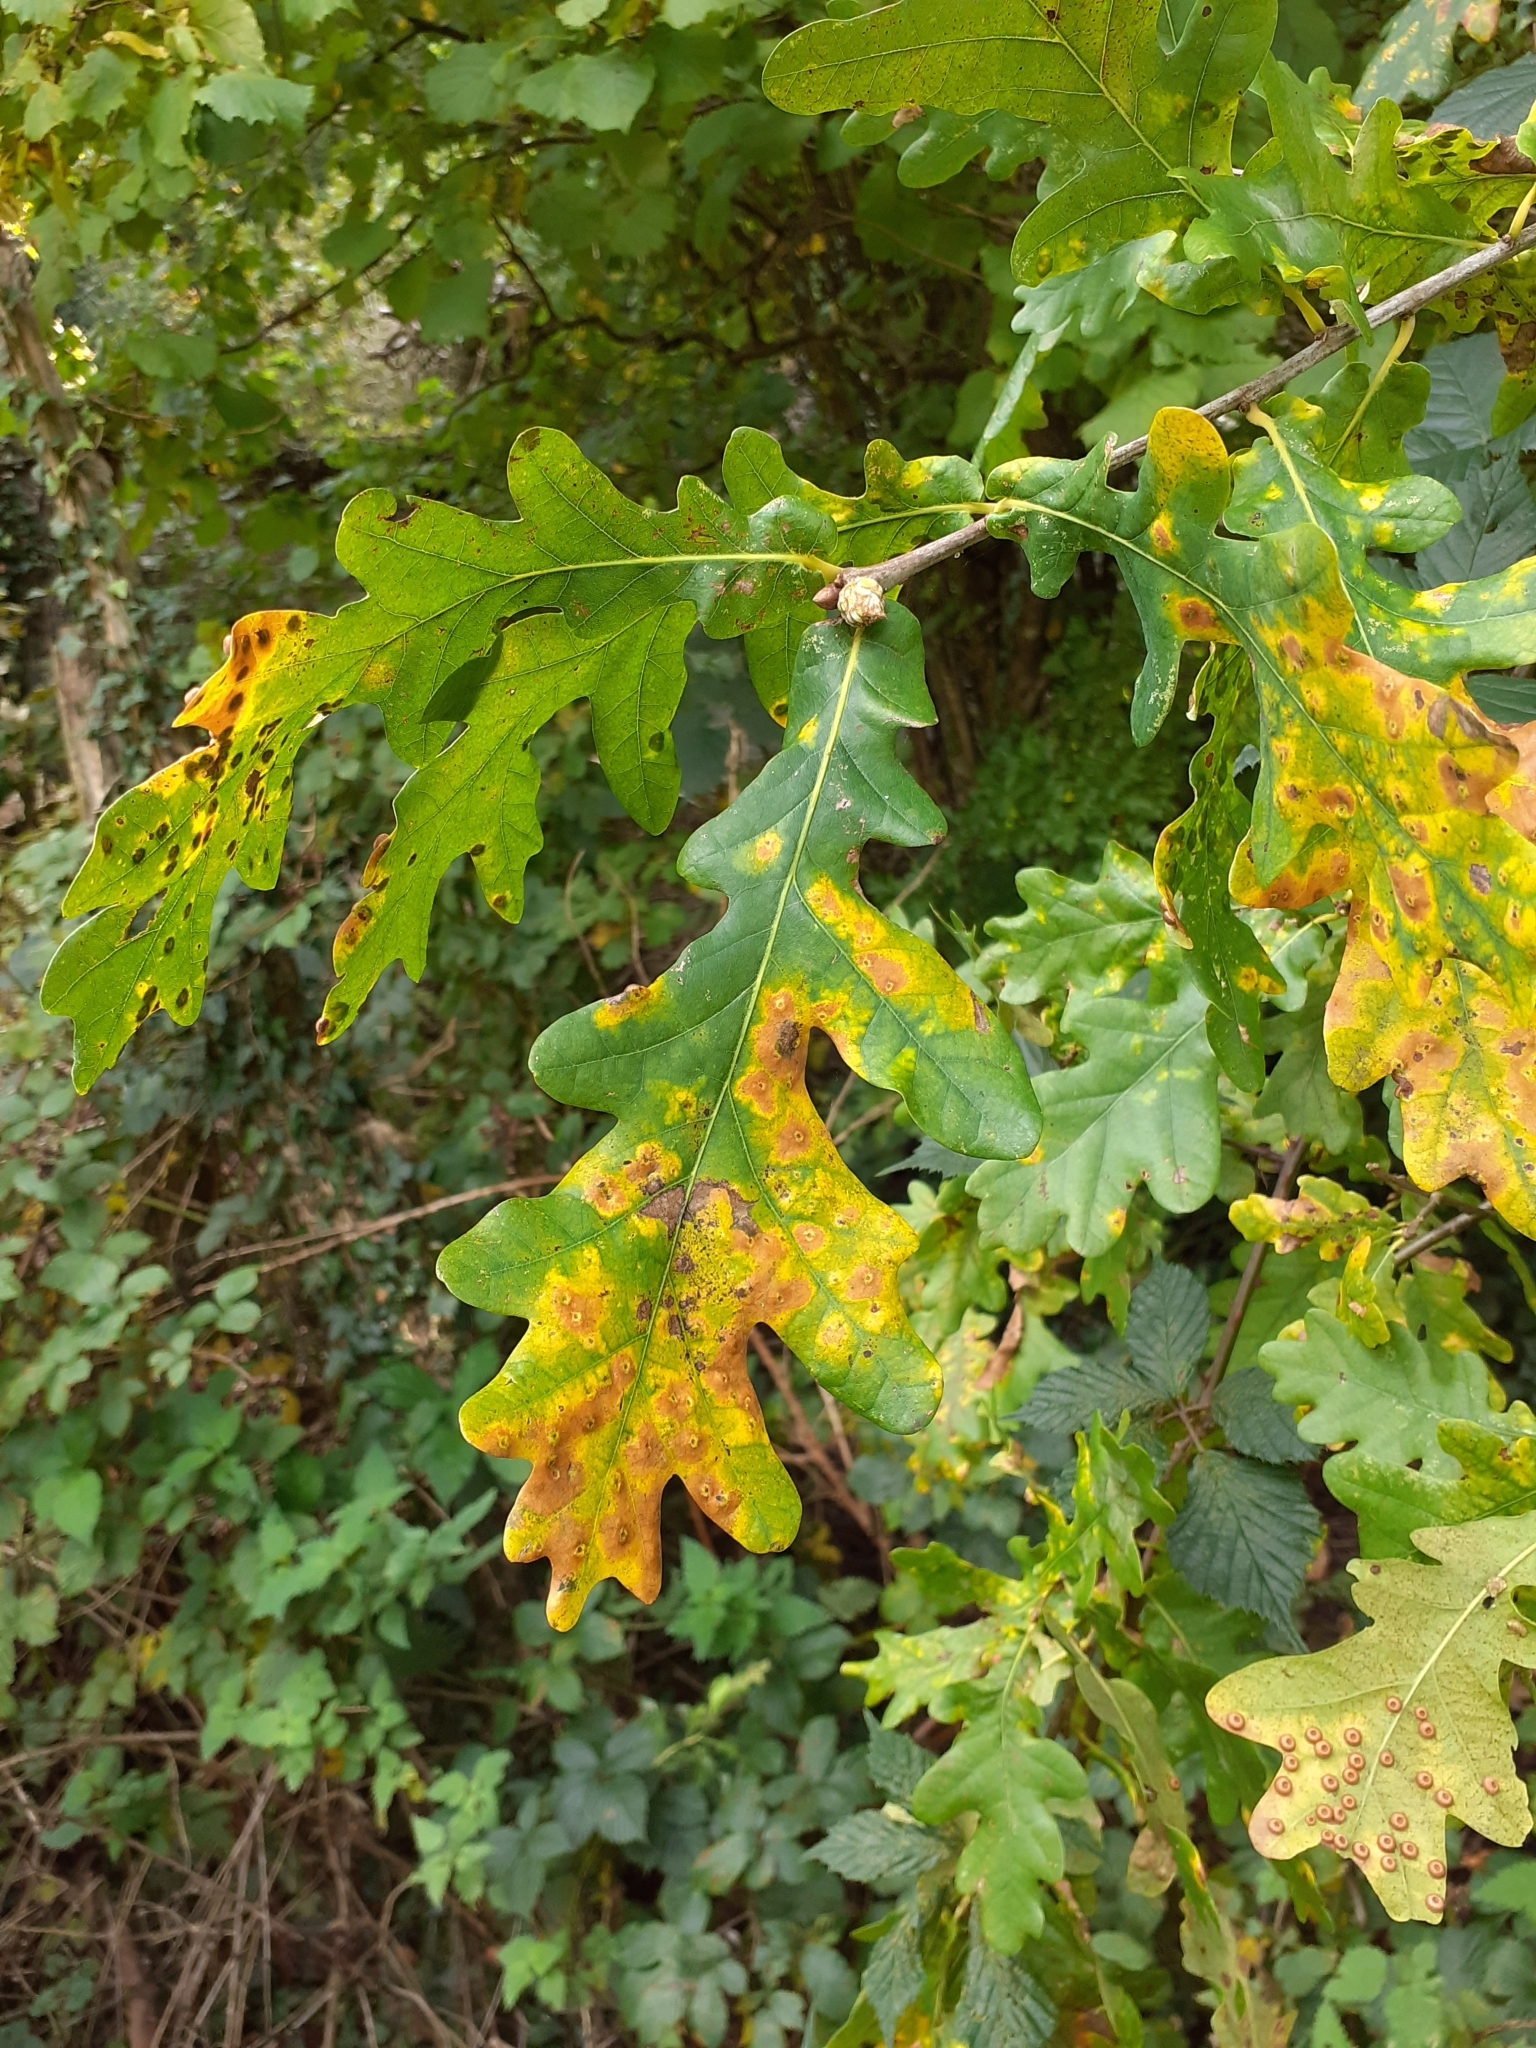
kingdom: Plantae
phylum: Tracheophyta
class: Magnoliopsida
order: Fagales
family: Fagaceae
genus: Quercus
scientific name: Quercus robur
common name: Pedunculate oak
